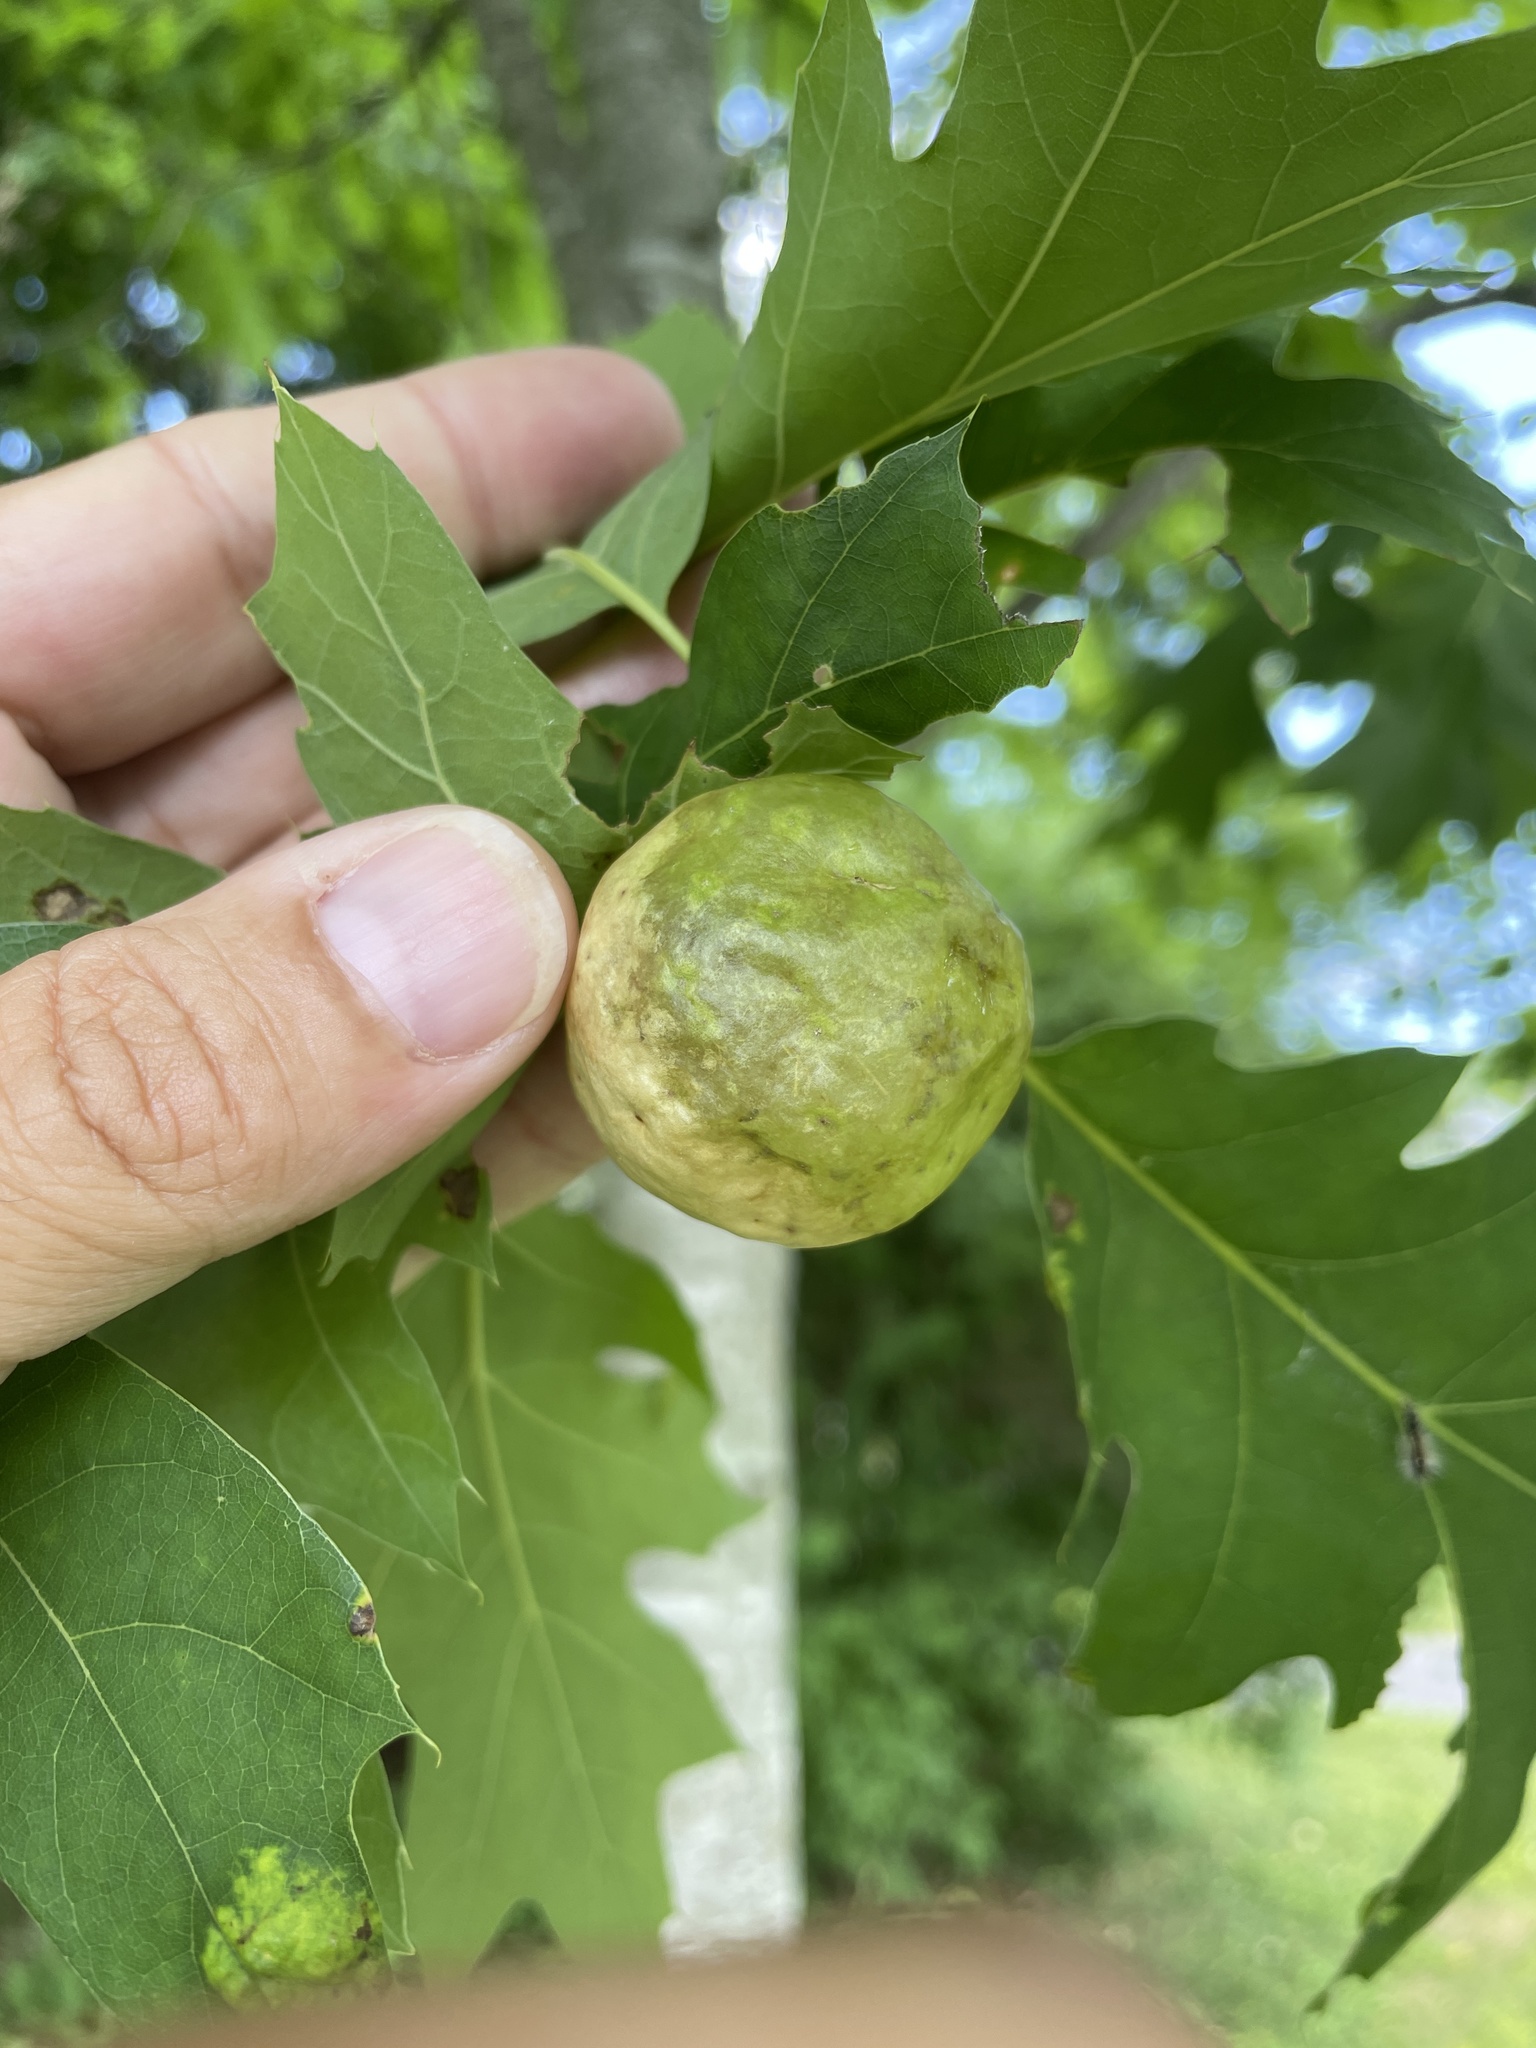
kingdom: Animalia
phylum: Arthropoda
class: Insecta
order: Hymenoptera
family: Cynipidae
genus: Amphibolips
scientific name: Amphibolips
